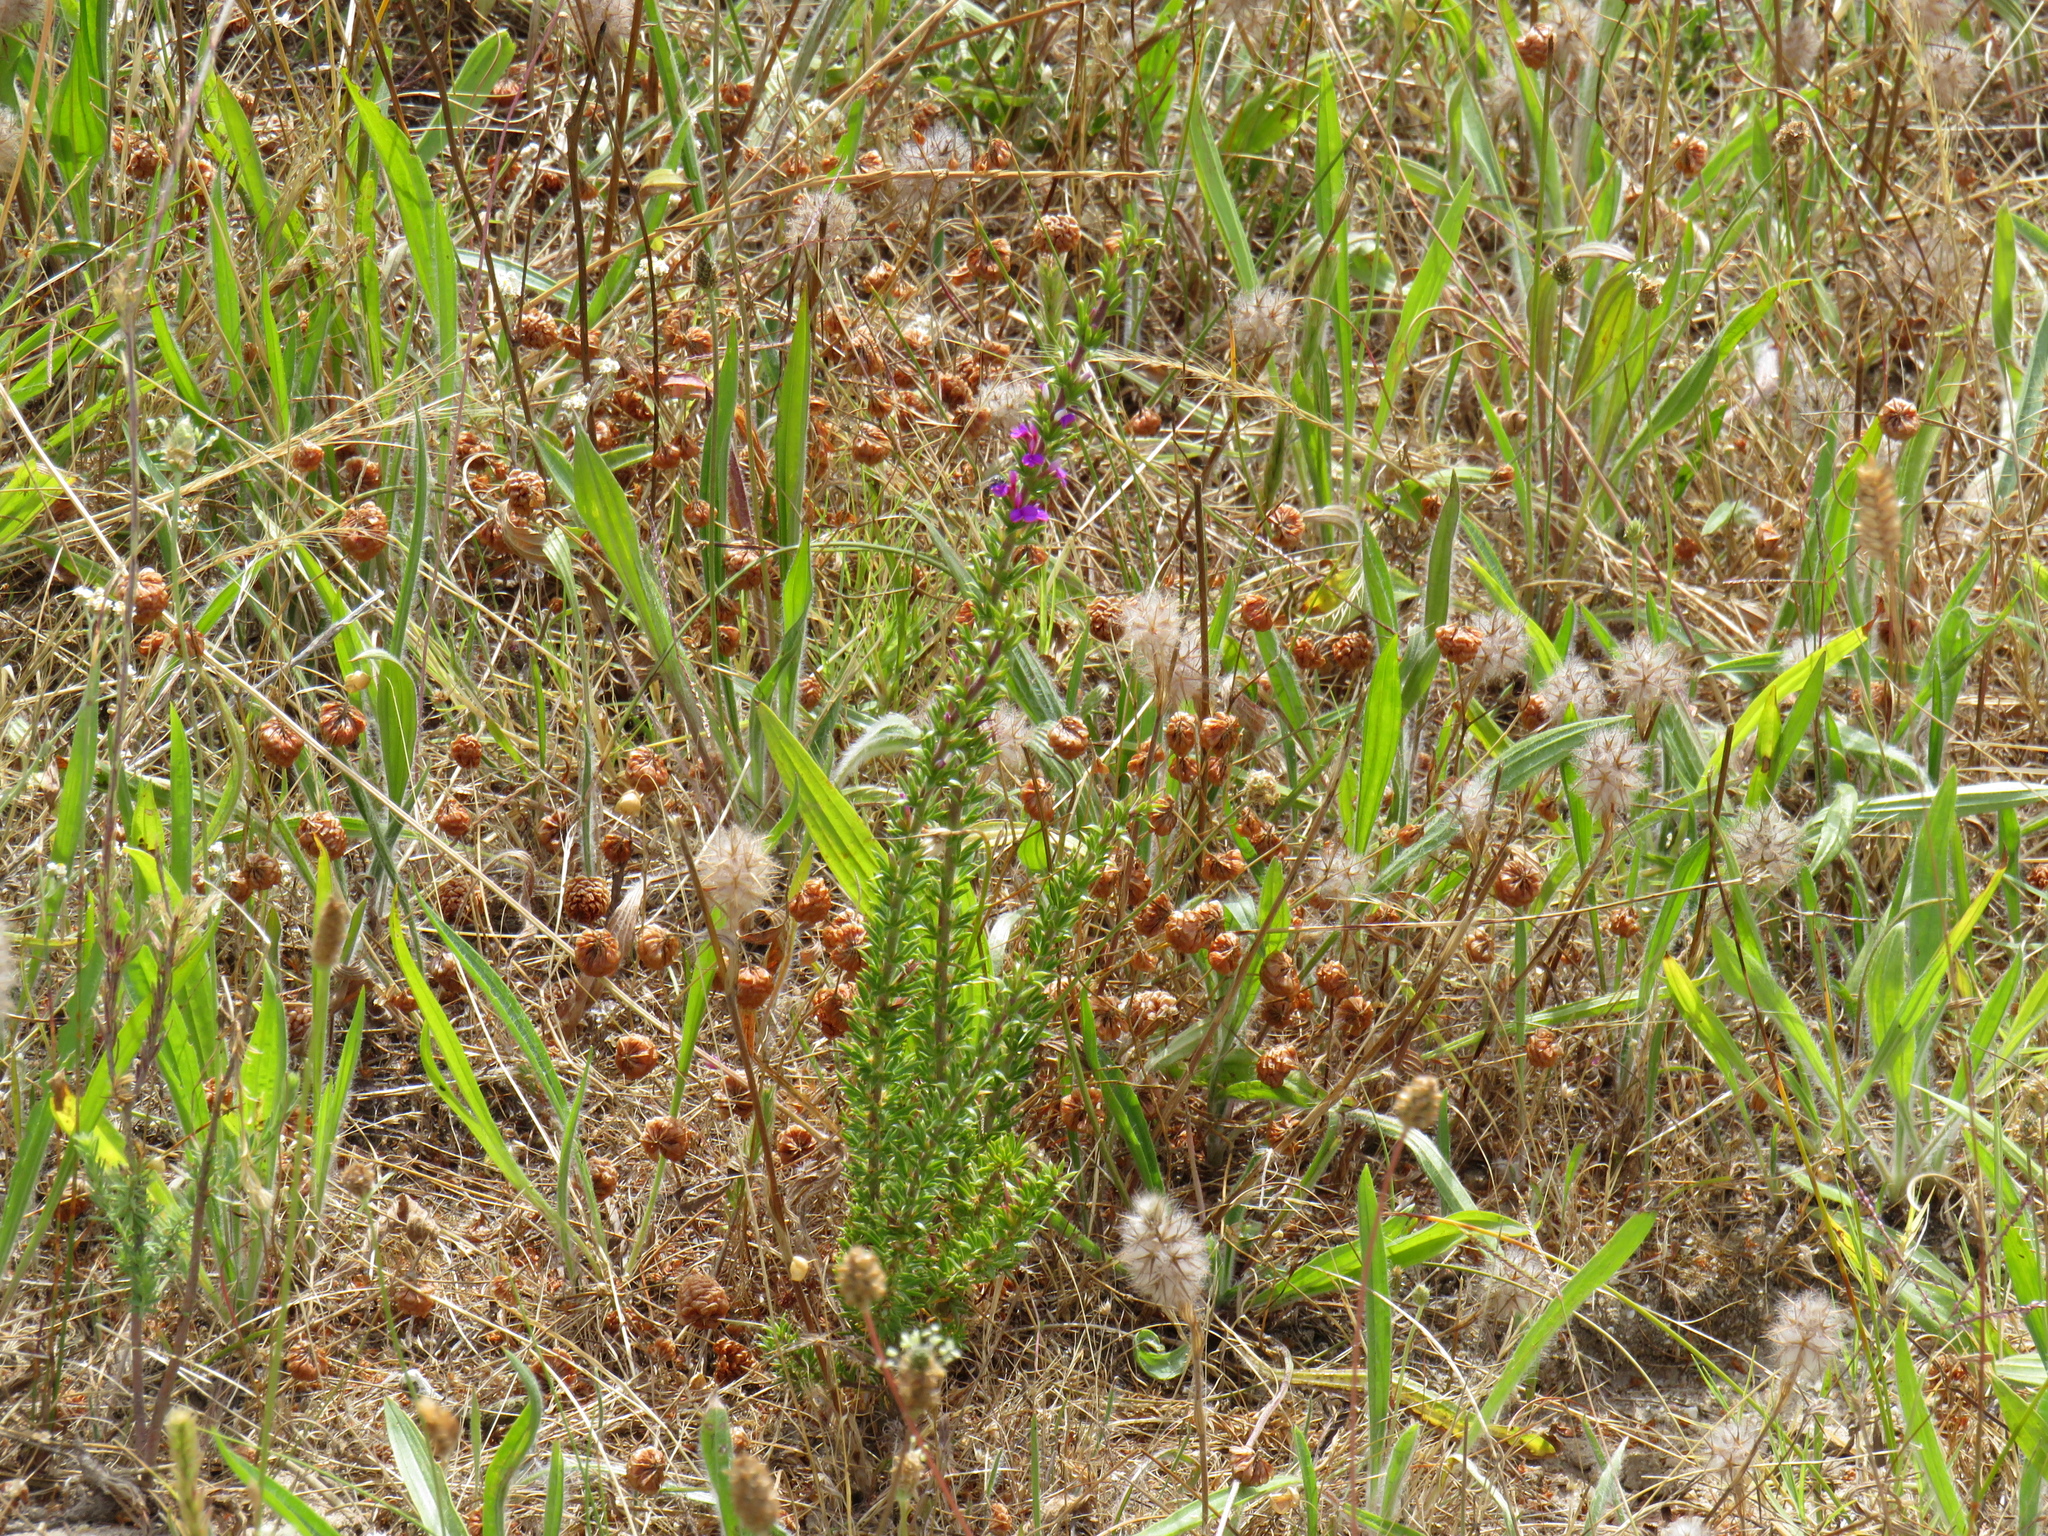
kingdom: Plantae
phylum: Tracheophyta
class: Magnoliopsida
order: Fabales
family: Polygalaceae
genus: Muraltia
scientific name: Muraltia heisteria
